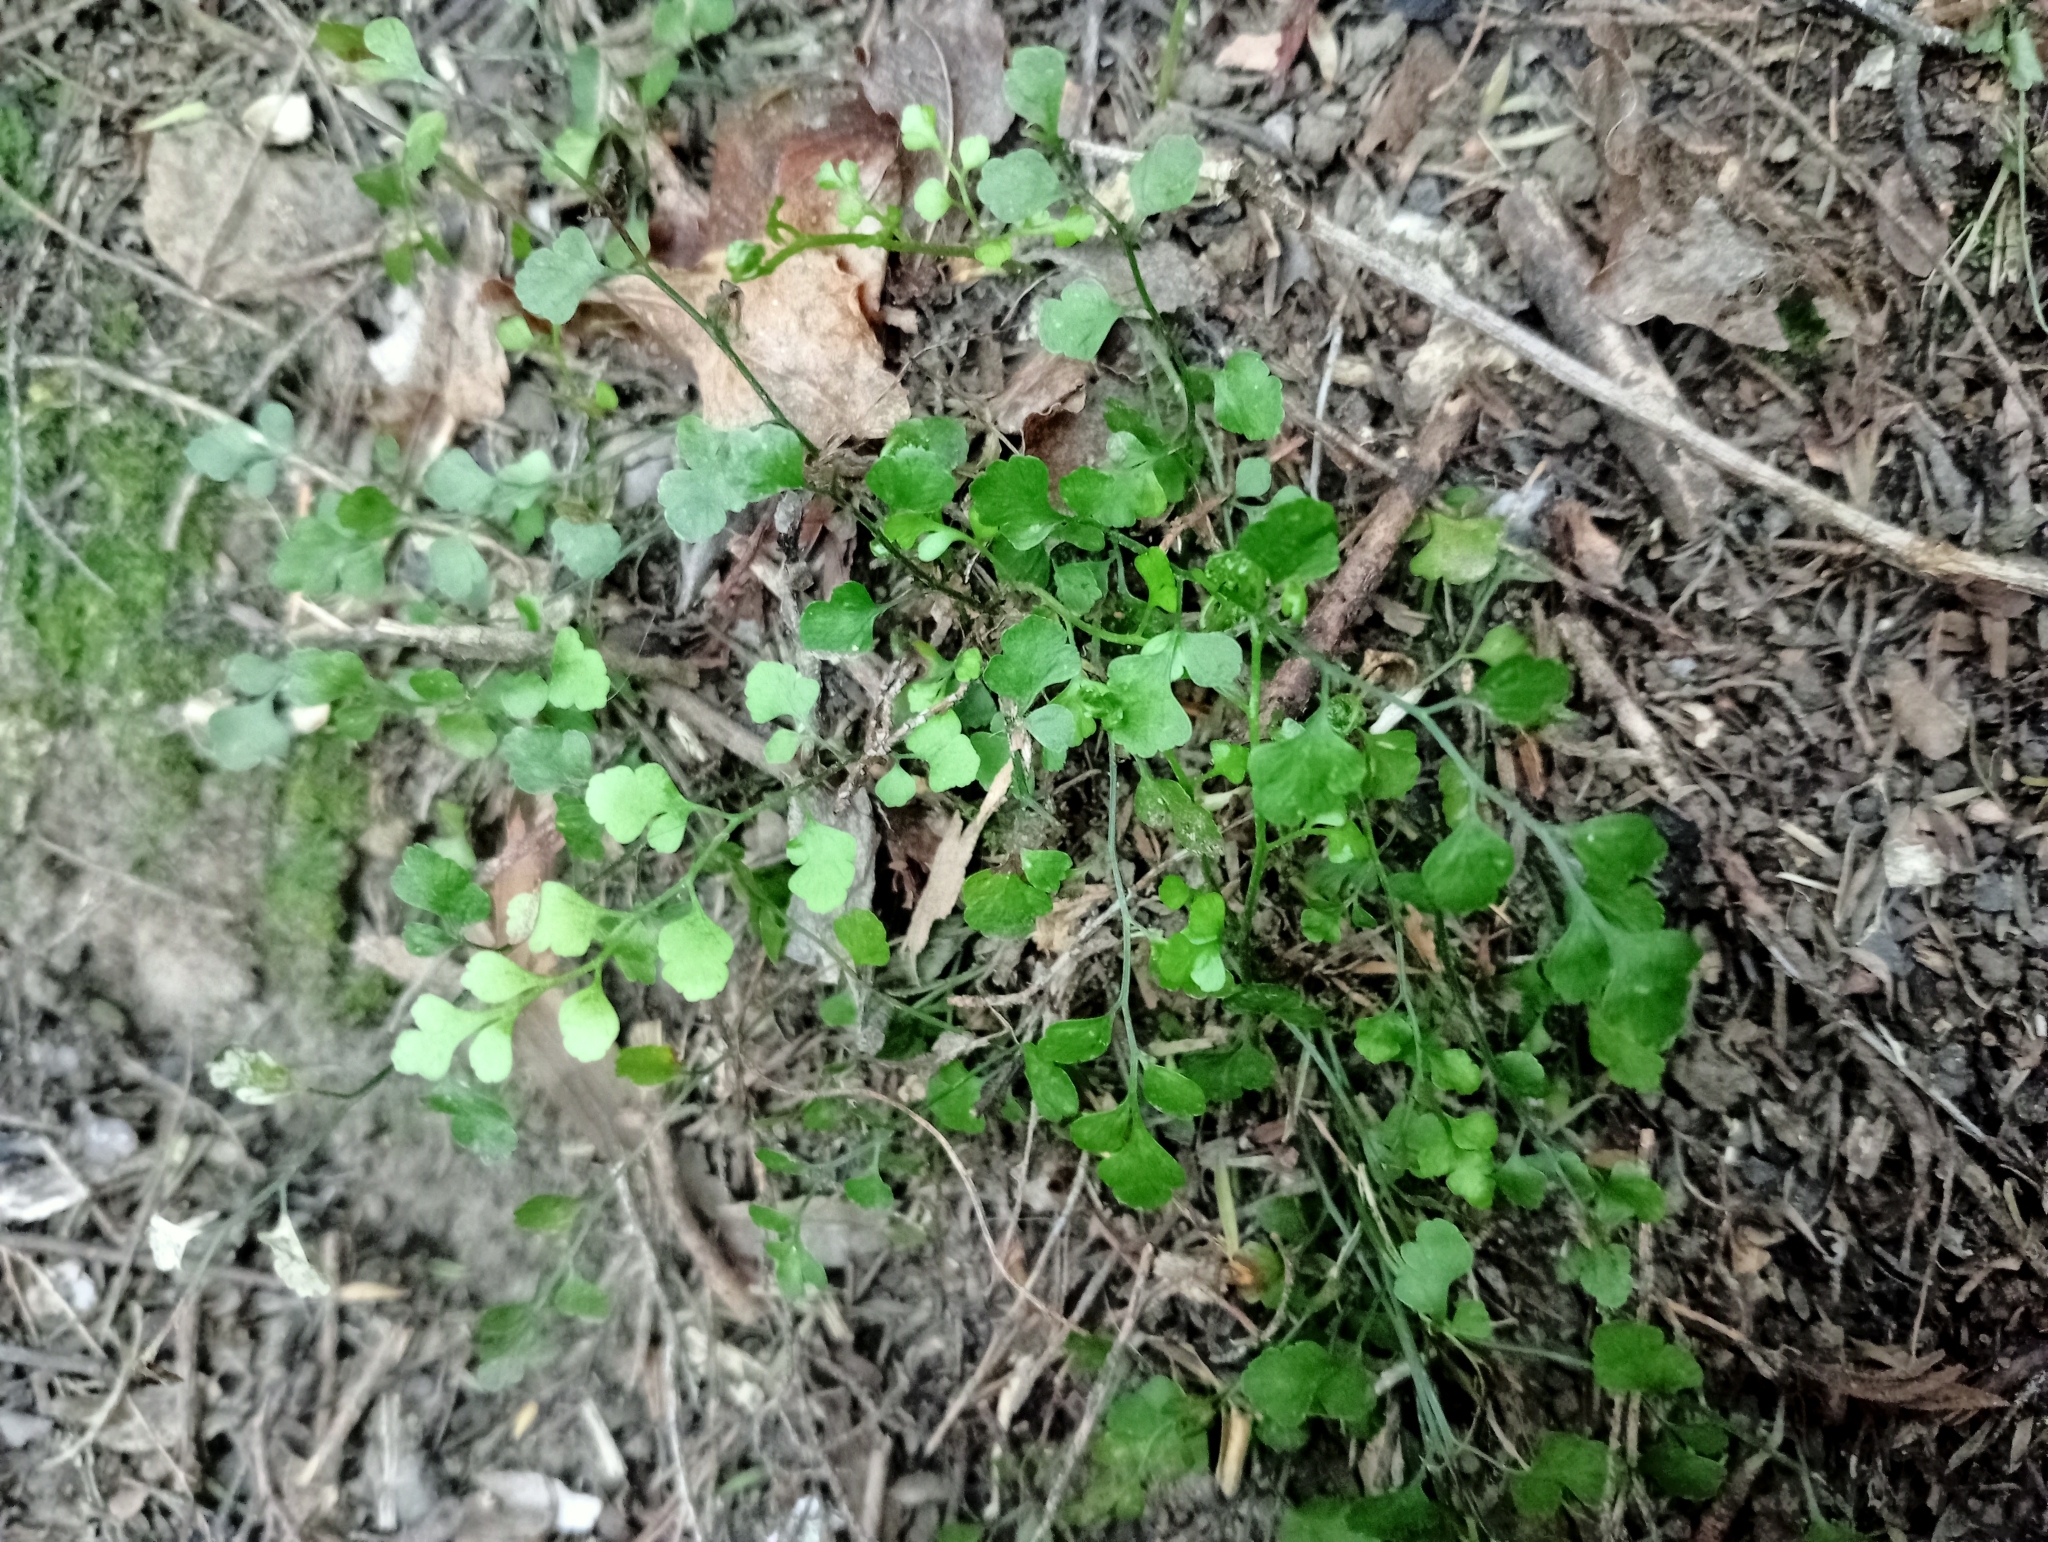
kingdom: Plantae
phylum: Tracheophyta
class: Polypodiopsida
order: Polypodiales
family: Aspleniaceae
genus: Asplenium
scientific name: Asplenium hookerianum
